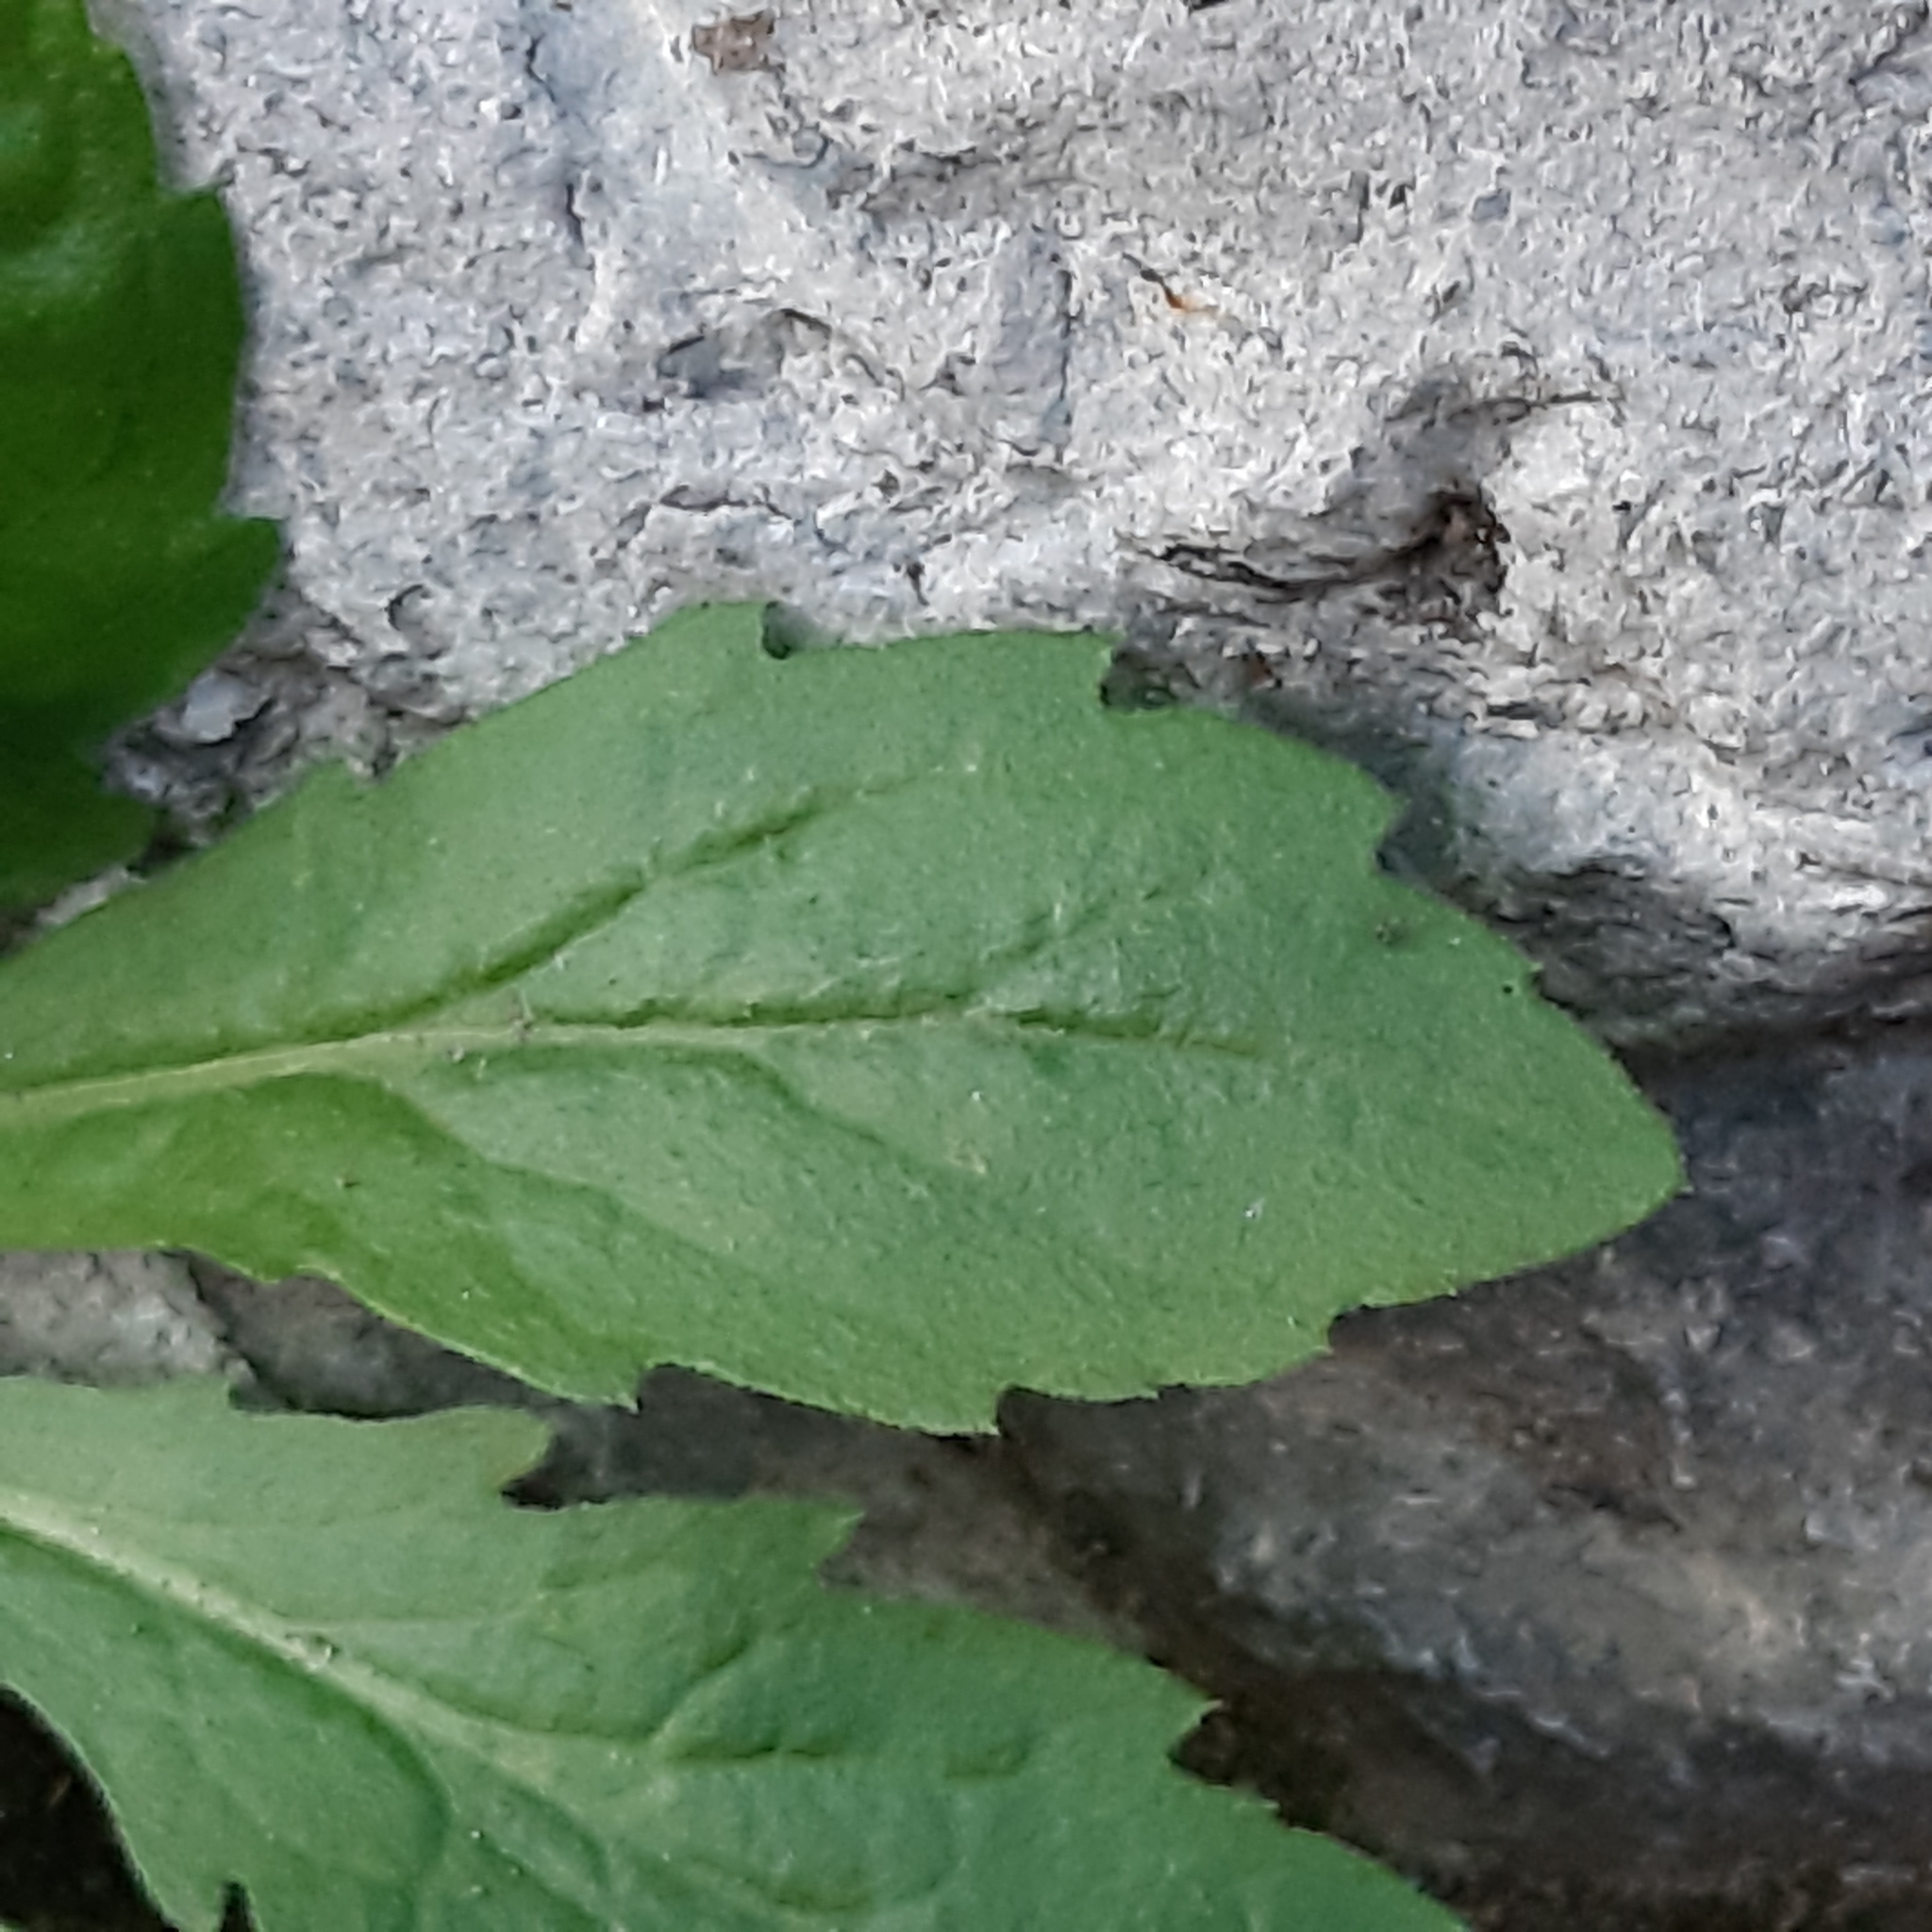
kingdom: Plantae
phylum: Tracheophyta
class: Magnoliopsida
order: Asterales
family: Asteraceae
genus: Erigeron
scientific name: Erigeron sumatrensis
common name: Daisy
